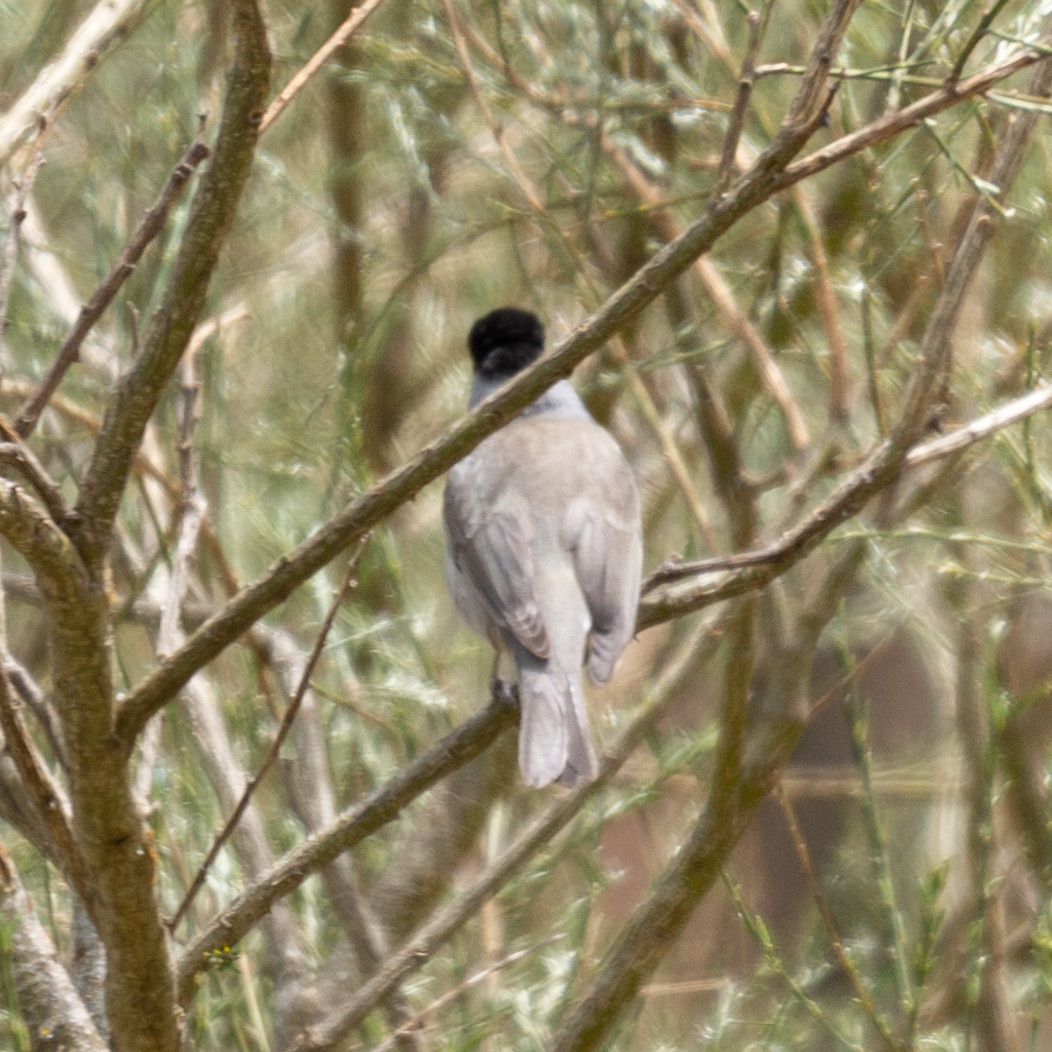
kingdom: Animalia
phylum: Chordata
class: Aves
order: Passeriformes
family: Sylviidae
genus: Sylvia
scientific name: Sylvia atricapilla
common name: Eurasian blackcap
